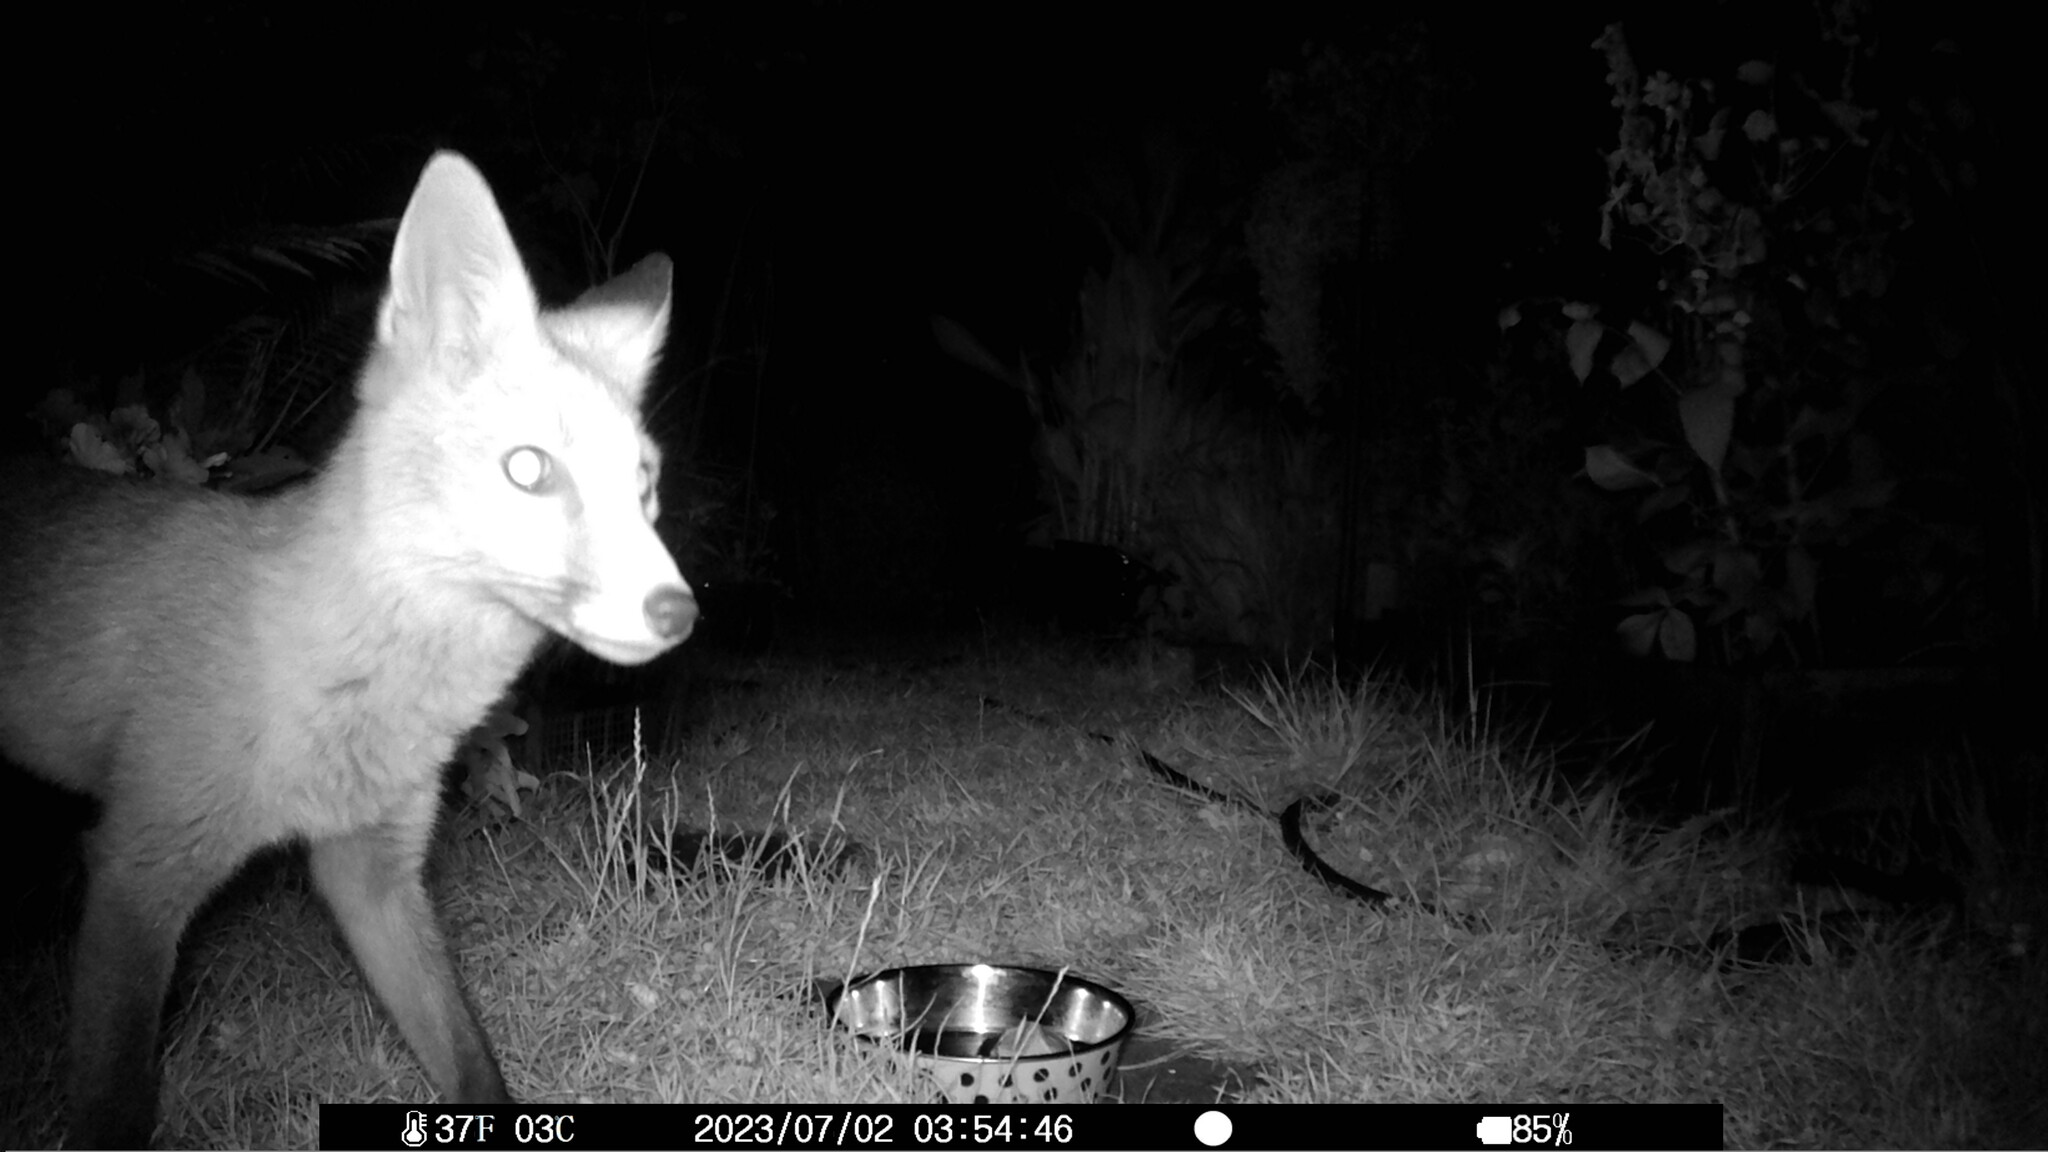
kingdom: Animalia
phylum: Chordata
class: Mammalia
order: Carnivora
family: Canidae
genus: Vulpes
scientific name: Vulpes vulpes
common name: Red fox
